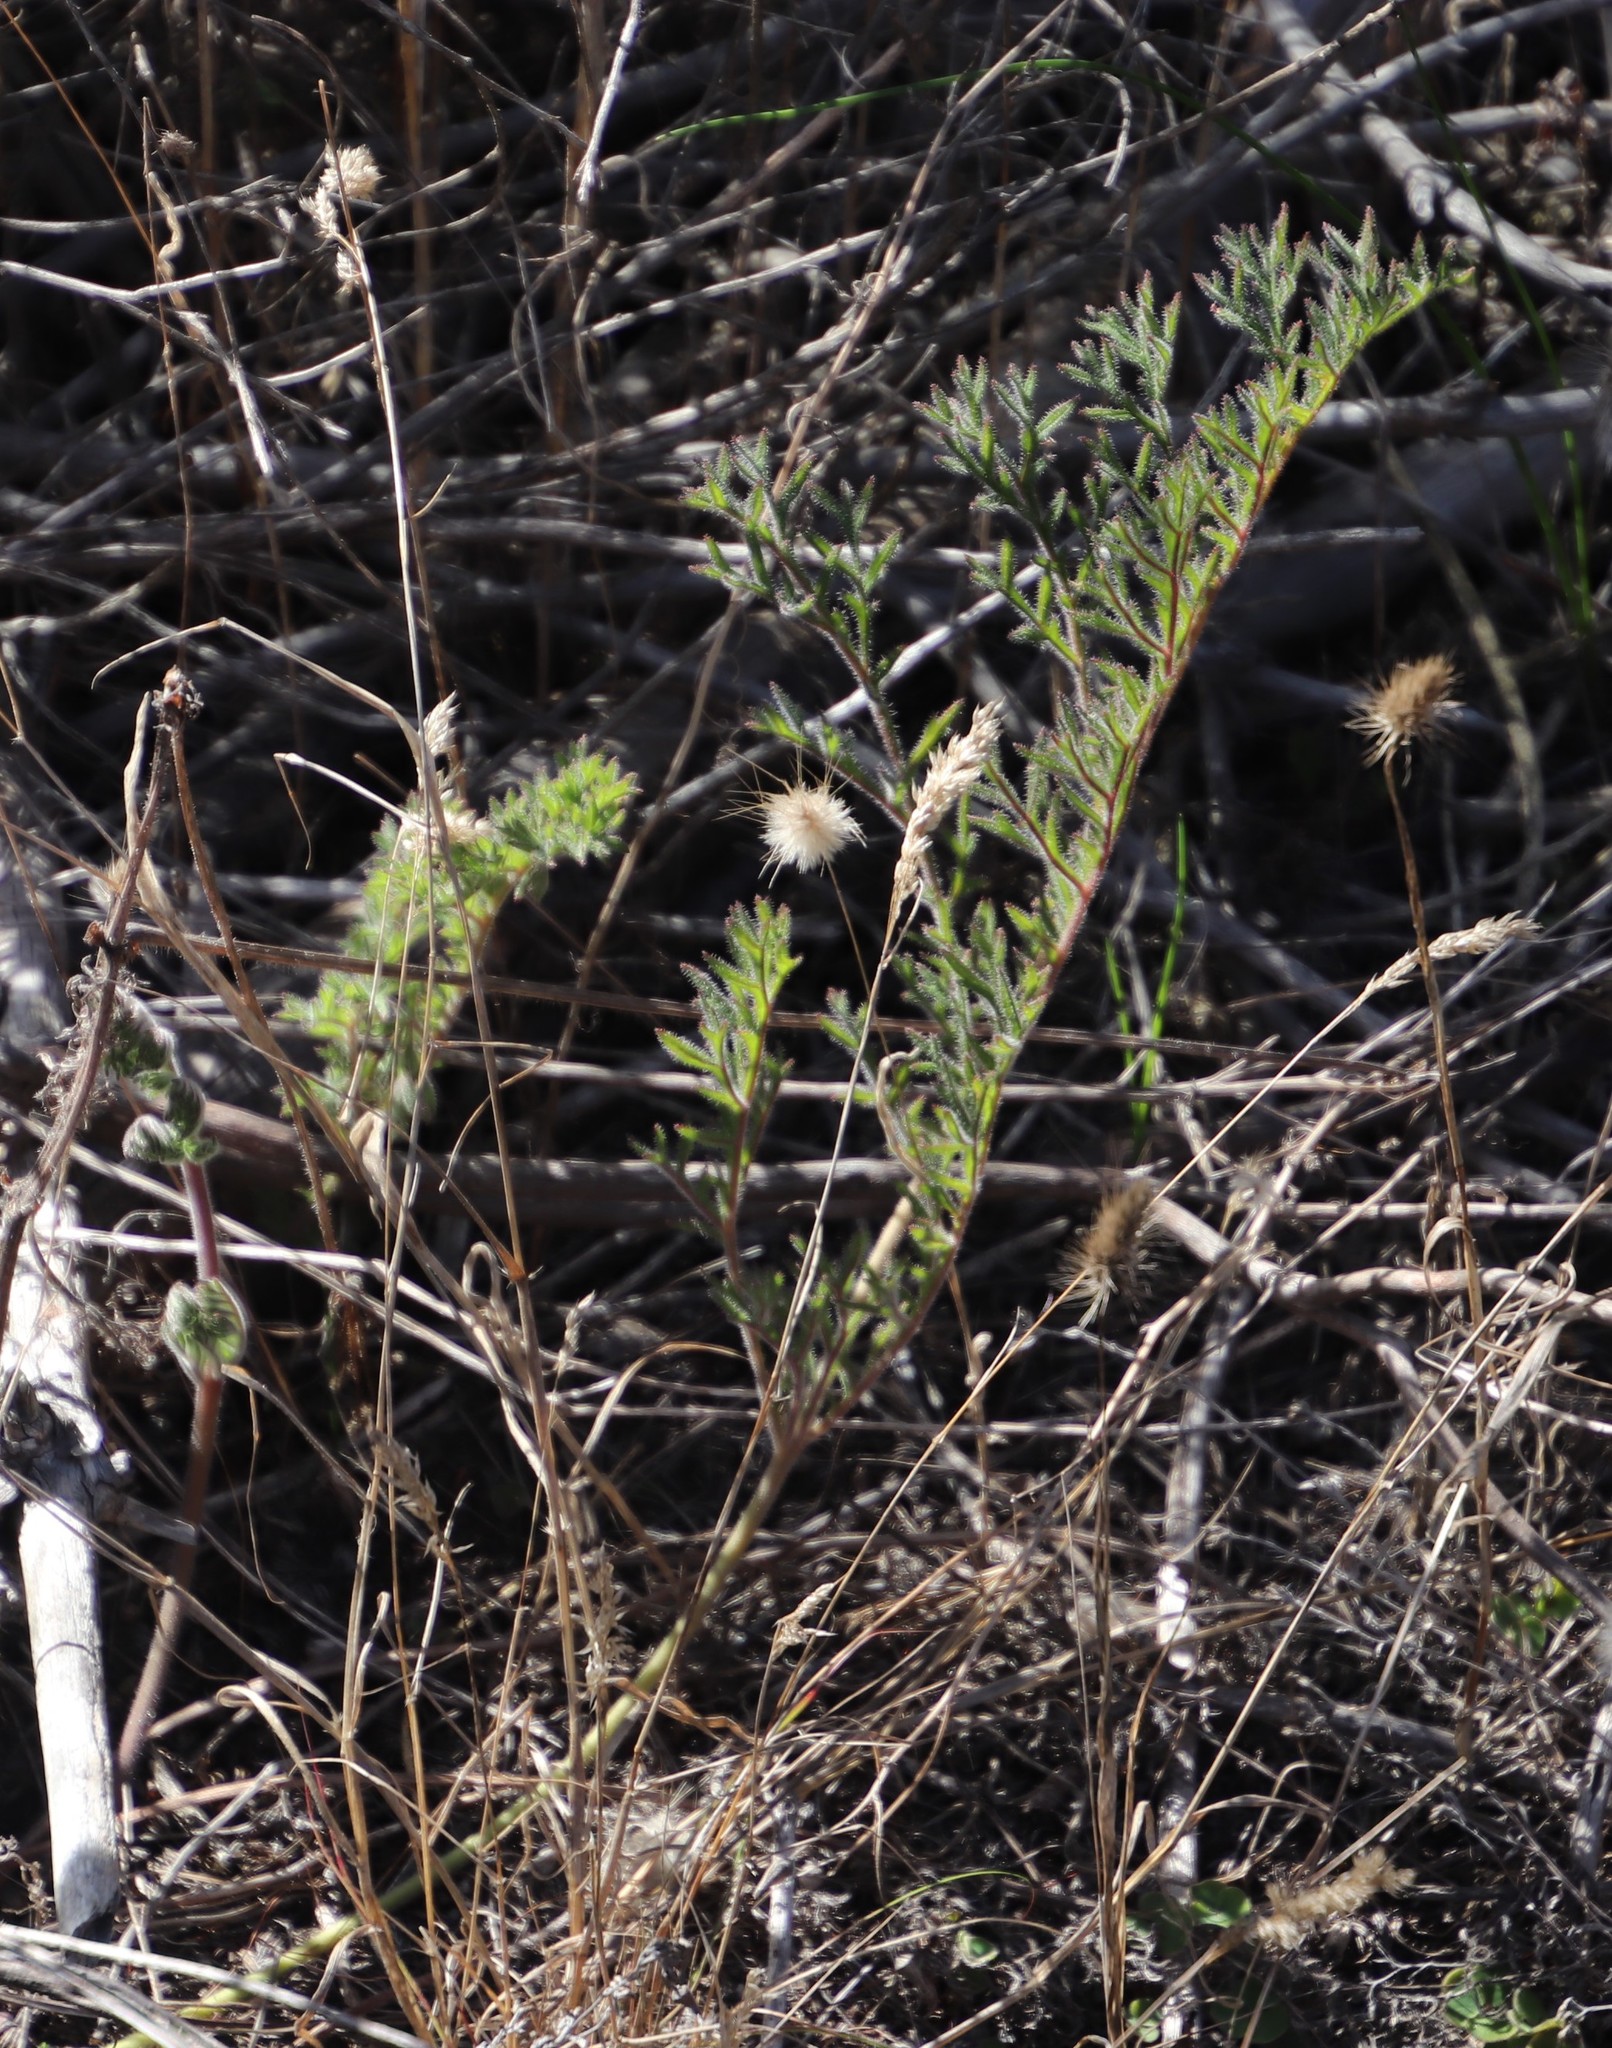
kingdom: Plantae
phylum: Tracheophyta
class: Magnoliopsida
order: Geraniales
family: Geraniaceae
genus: Pelargonium
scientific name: Pelargonium triste
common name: Night-scent pelargonium
